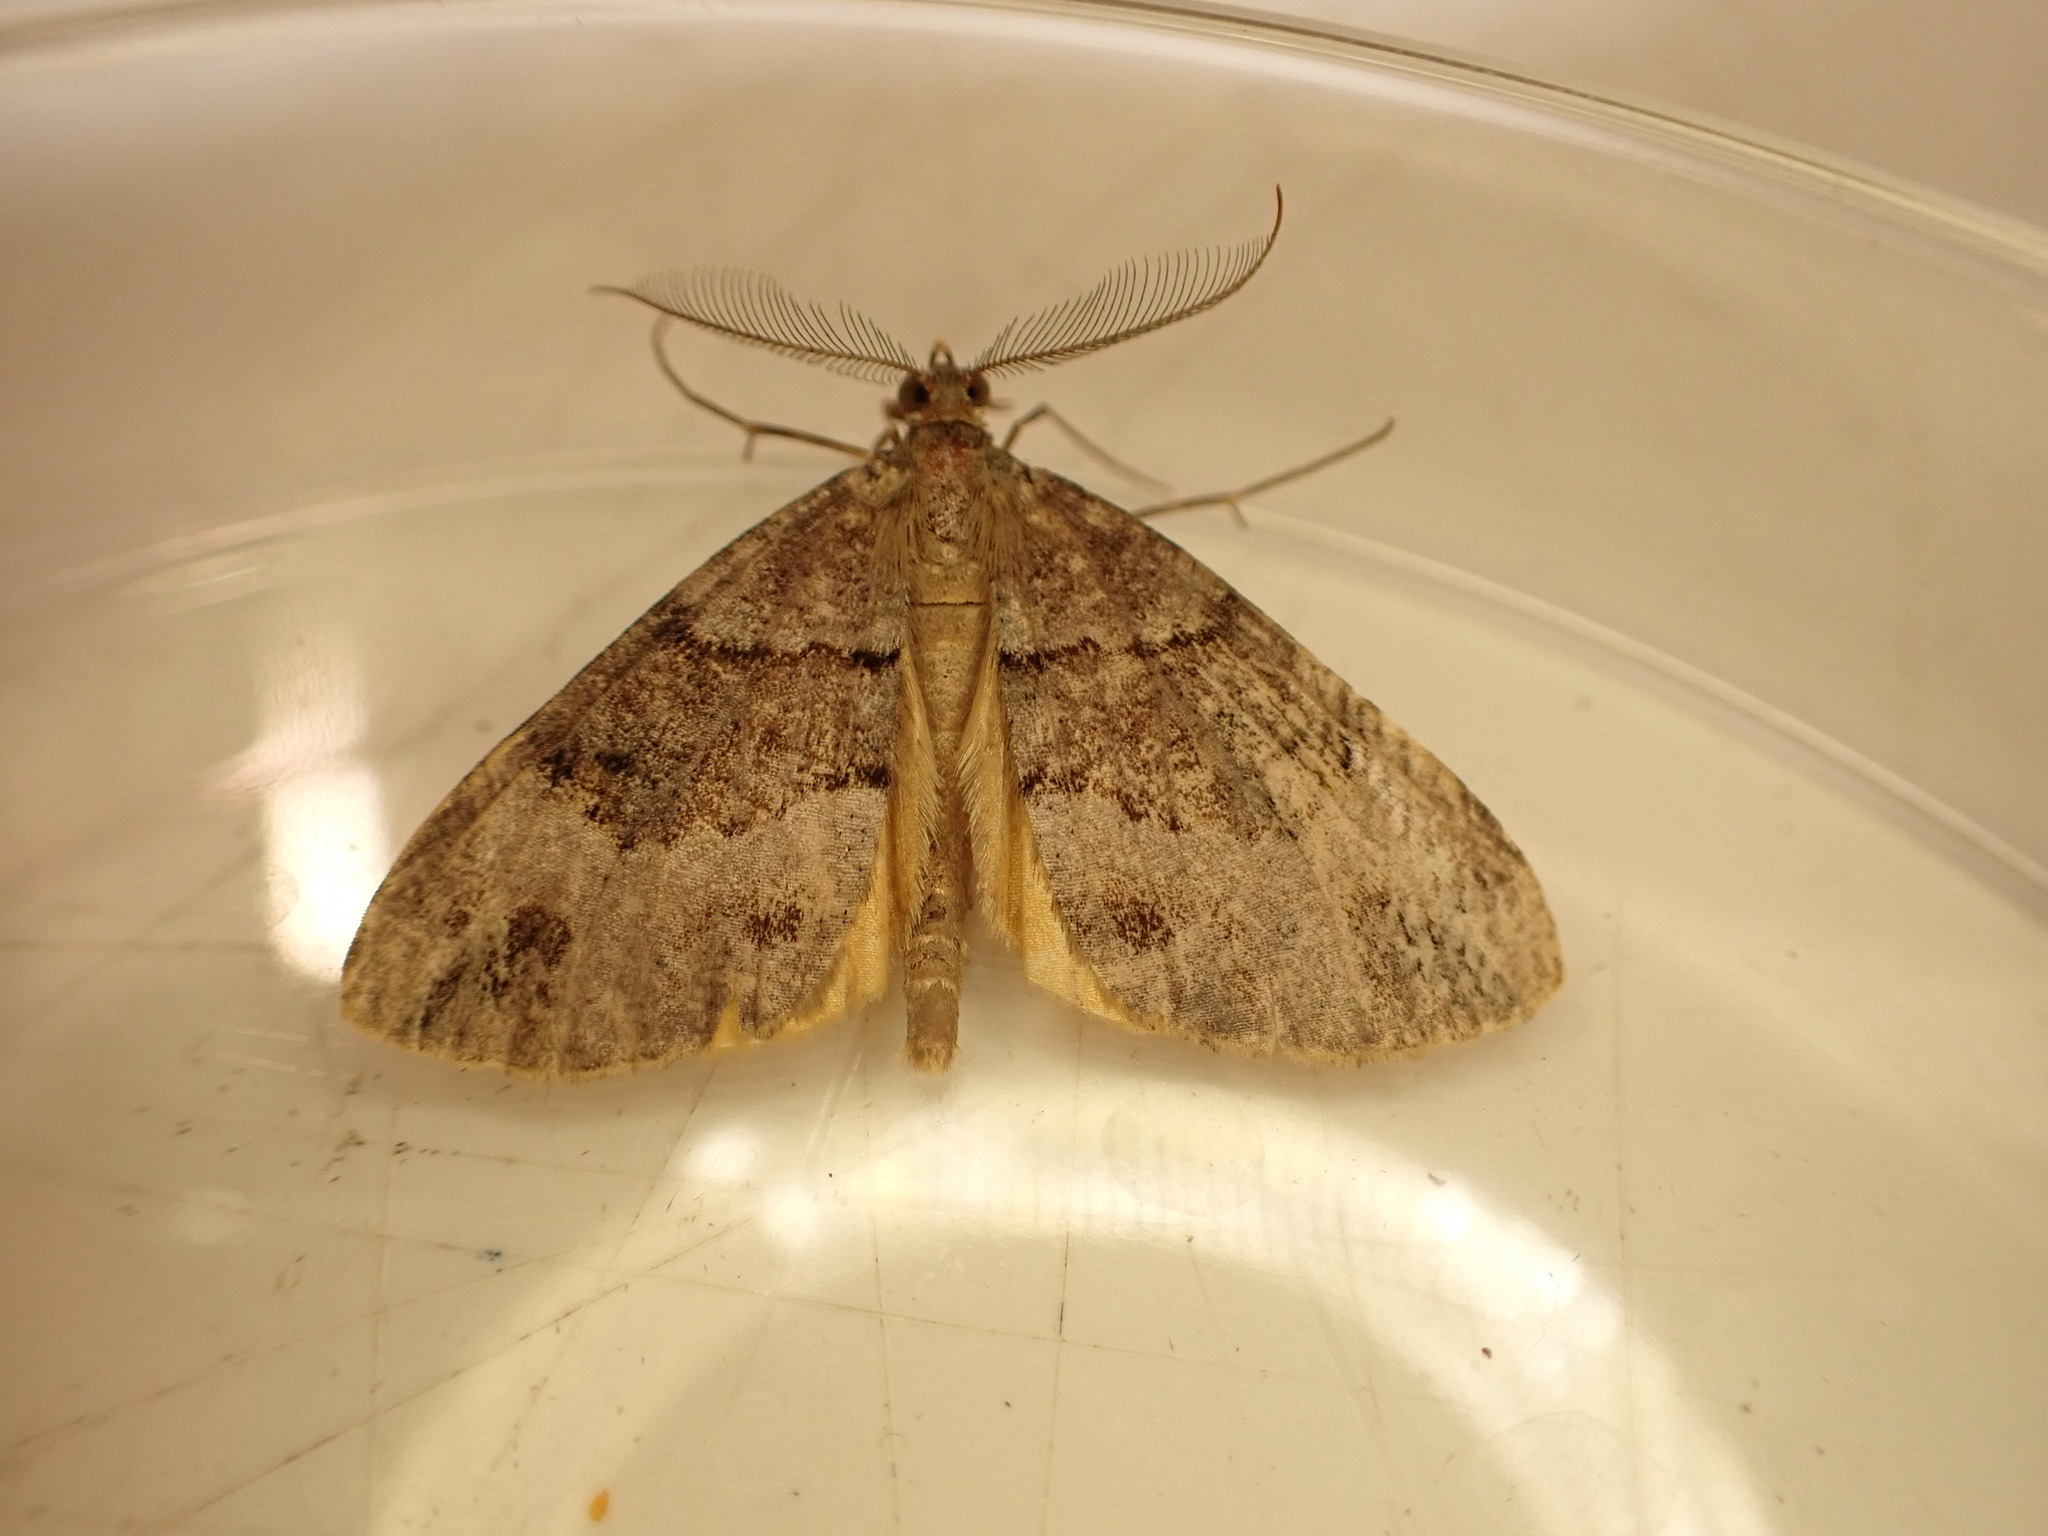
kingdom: Animalia
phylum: Arthropoda
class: Insecta
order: Lepidoptera
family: Geometridae
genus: Pseudocoremia
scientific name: Pseudocoremia productata
